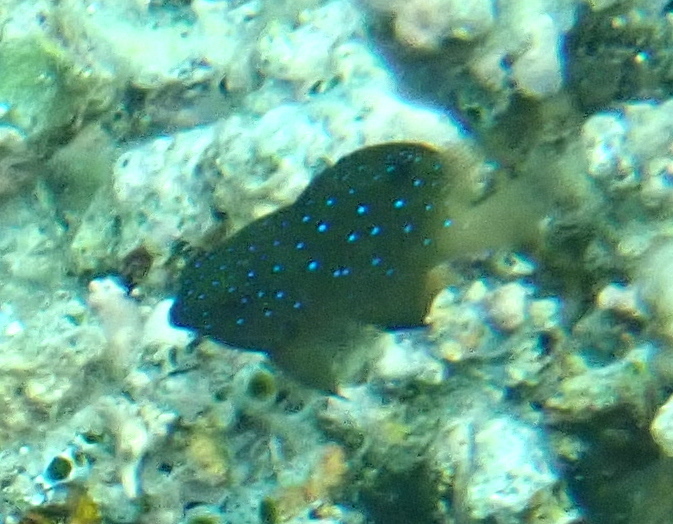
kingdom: Animalia
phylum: Chordata
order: Perciformes
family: Pomacentridae
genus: Plectroglyphidodon
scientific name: Plectroglyphidodon lacrymatus
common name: Jewel damsel
